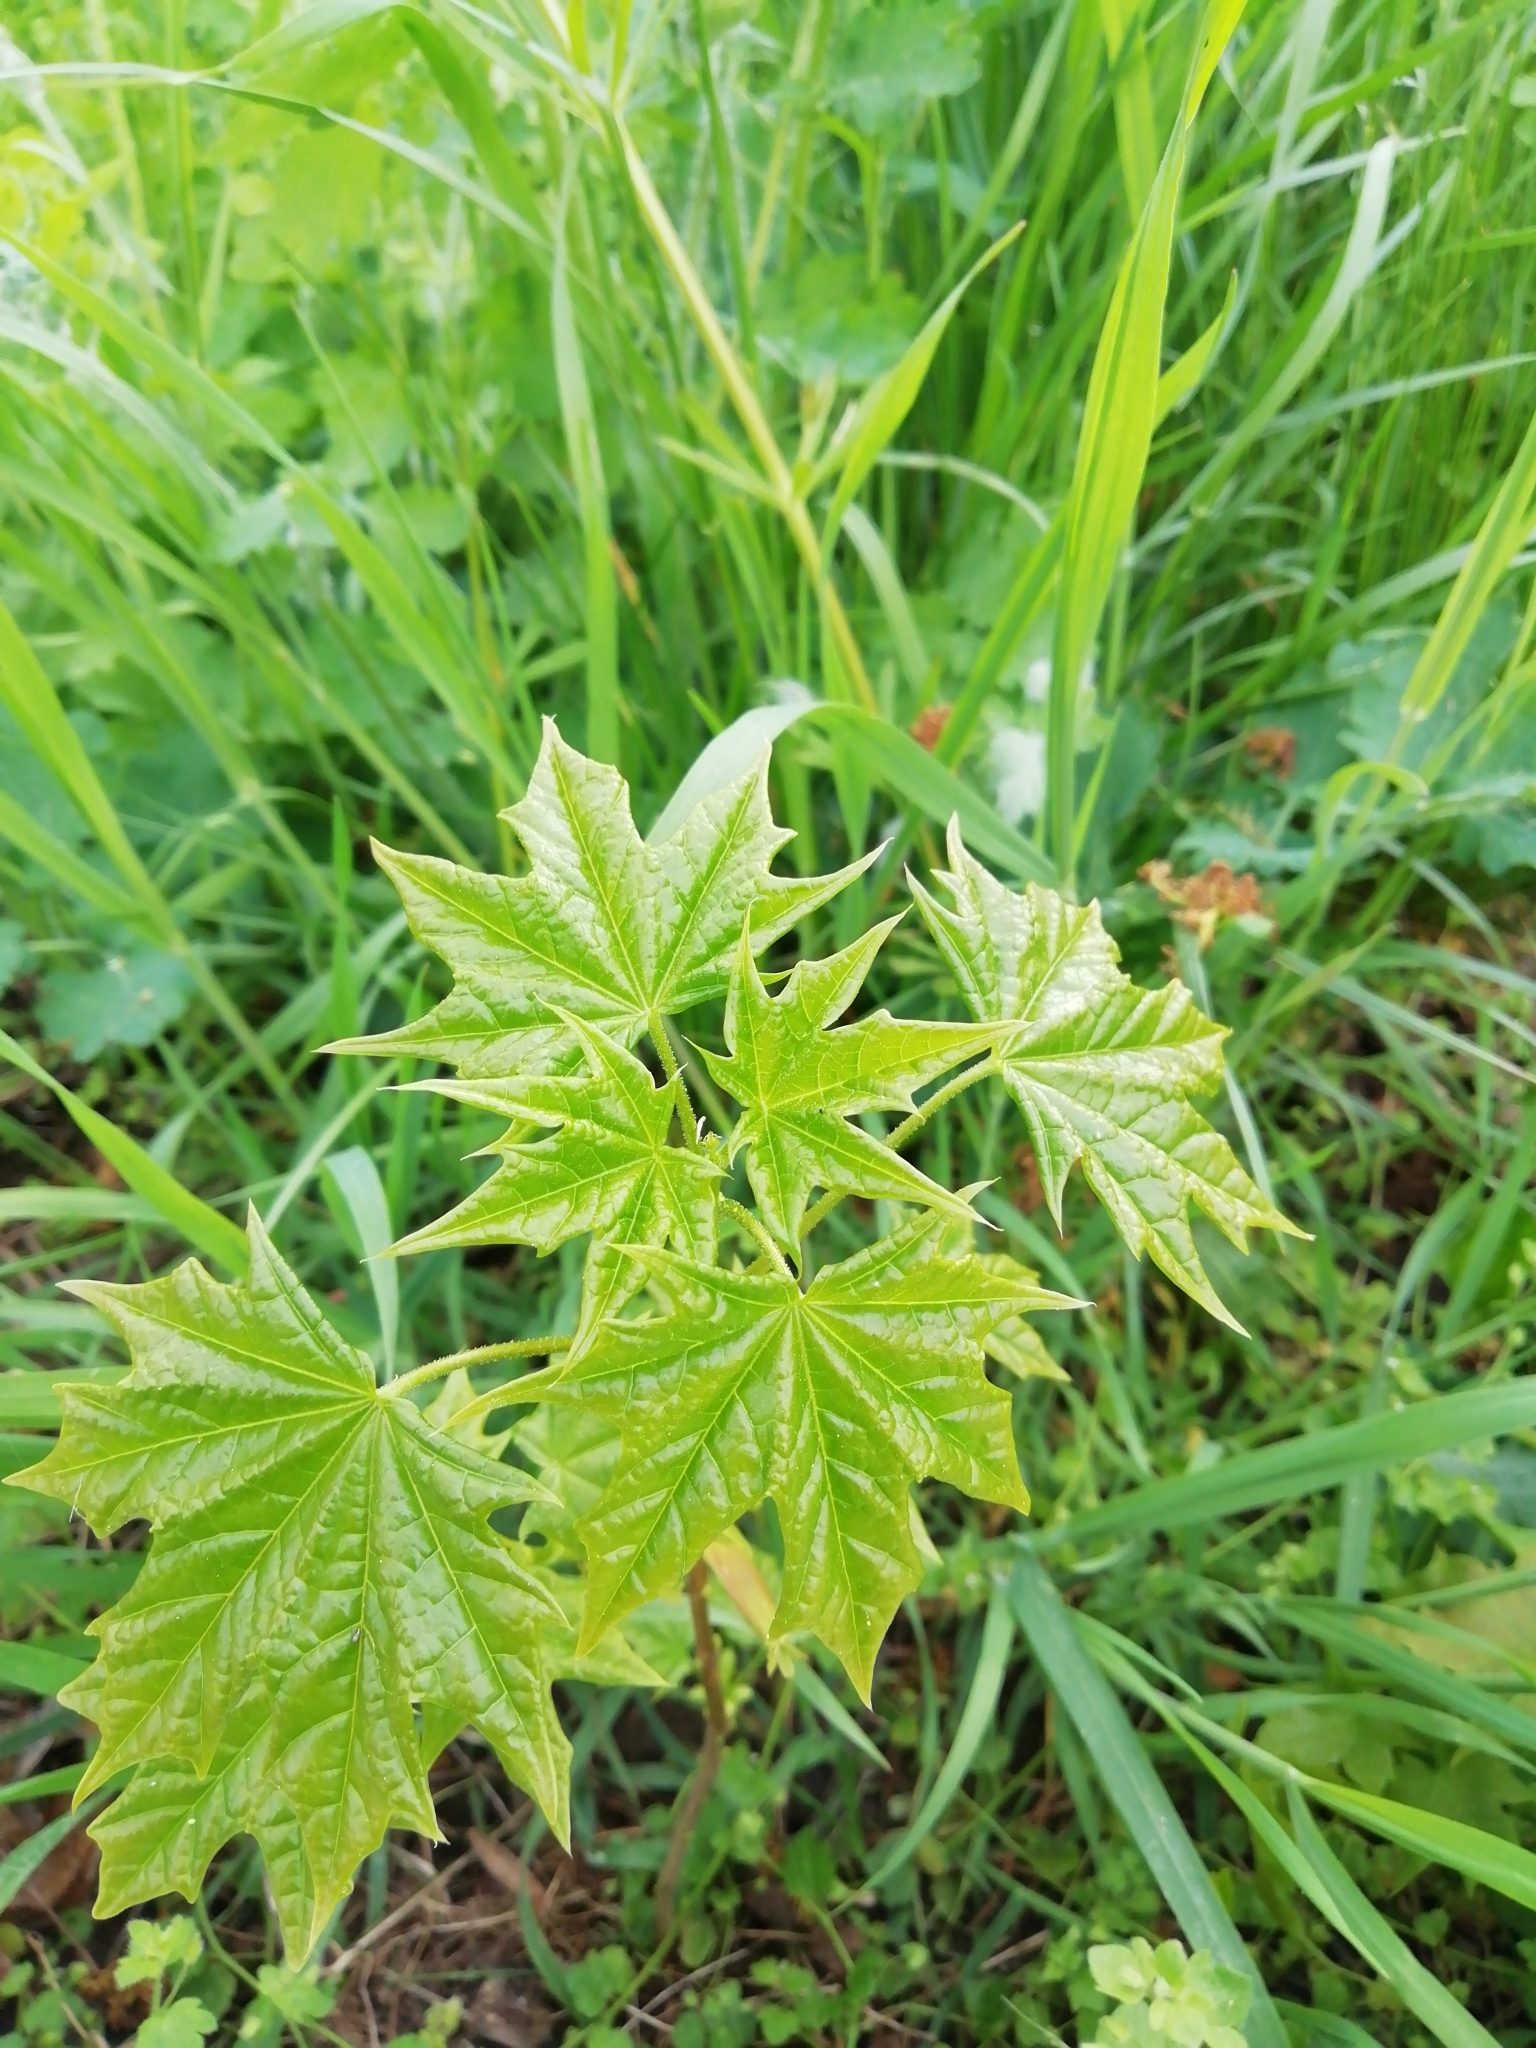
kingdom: Plantae
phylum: Tracheophyta
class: Magnoliopsida
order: Sapindales
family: Sapindaceae
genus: Acer
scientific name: Acer platanoides
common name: Norway maple
